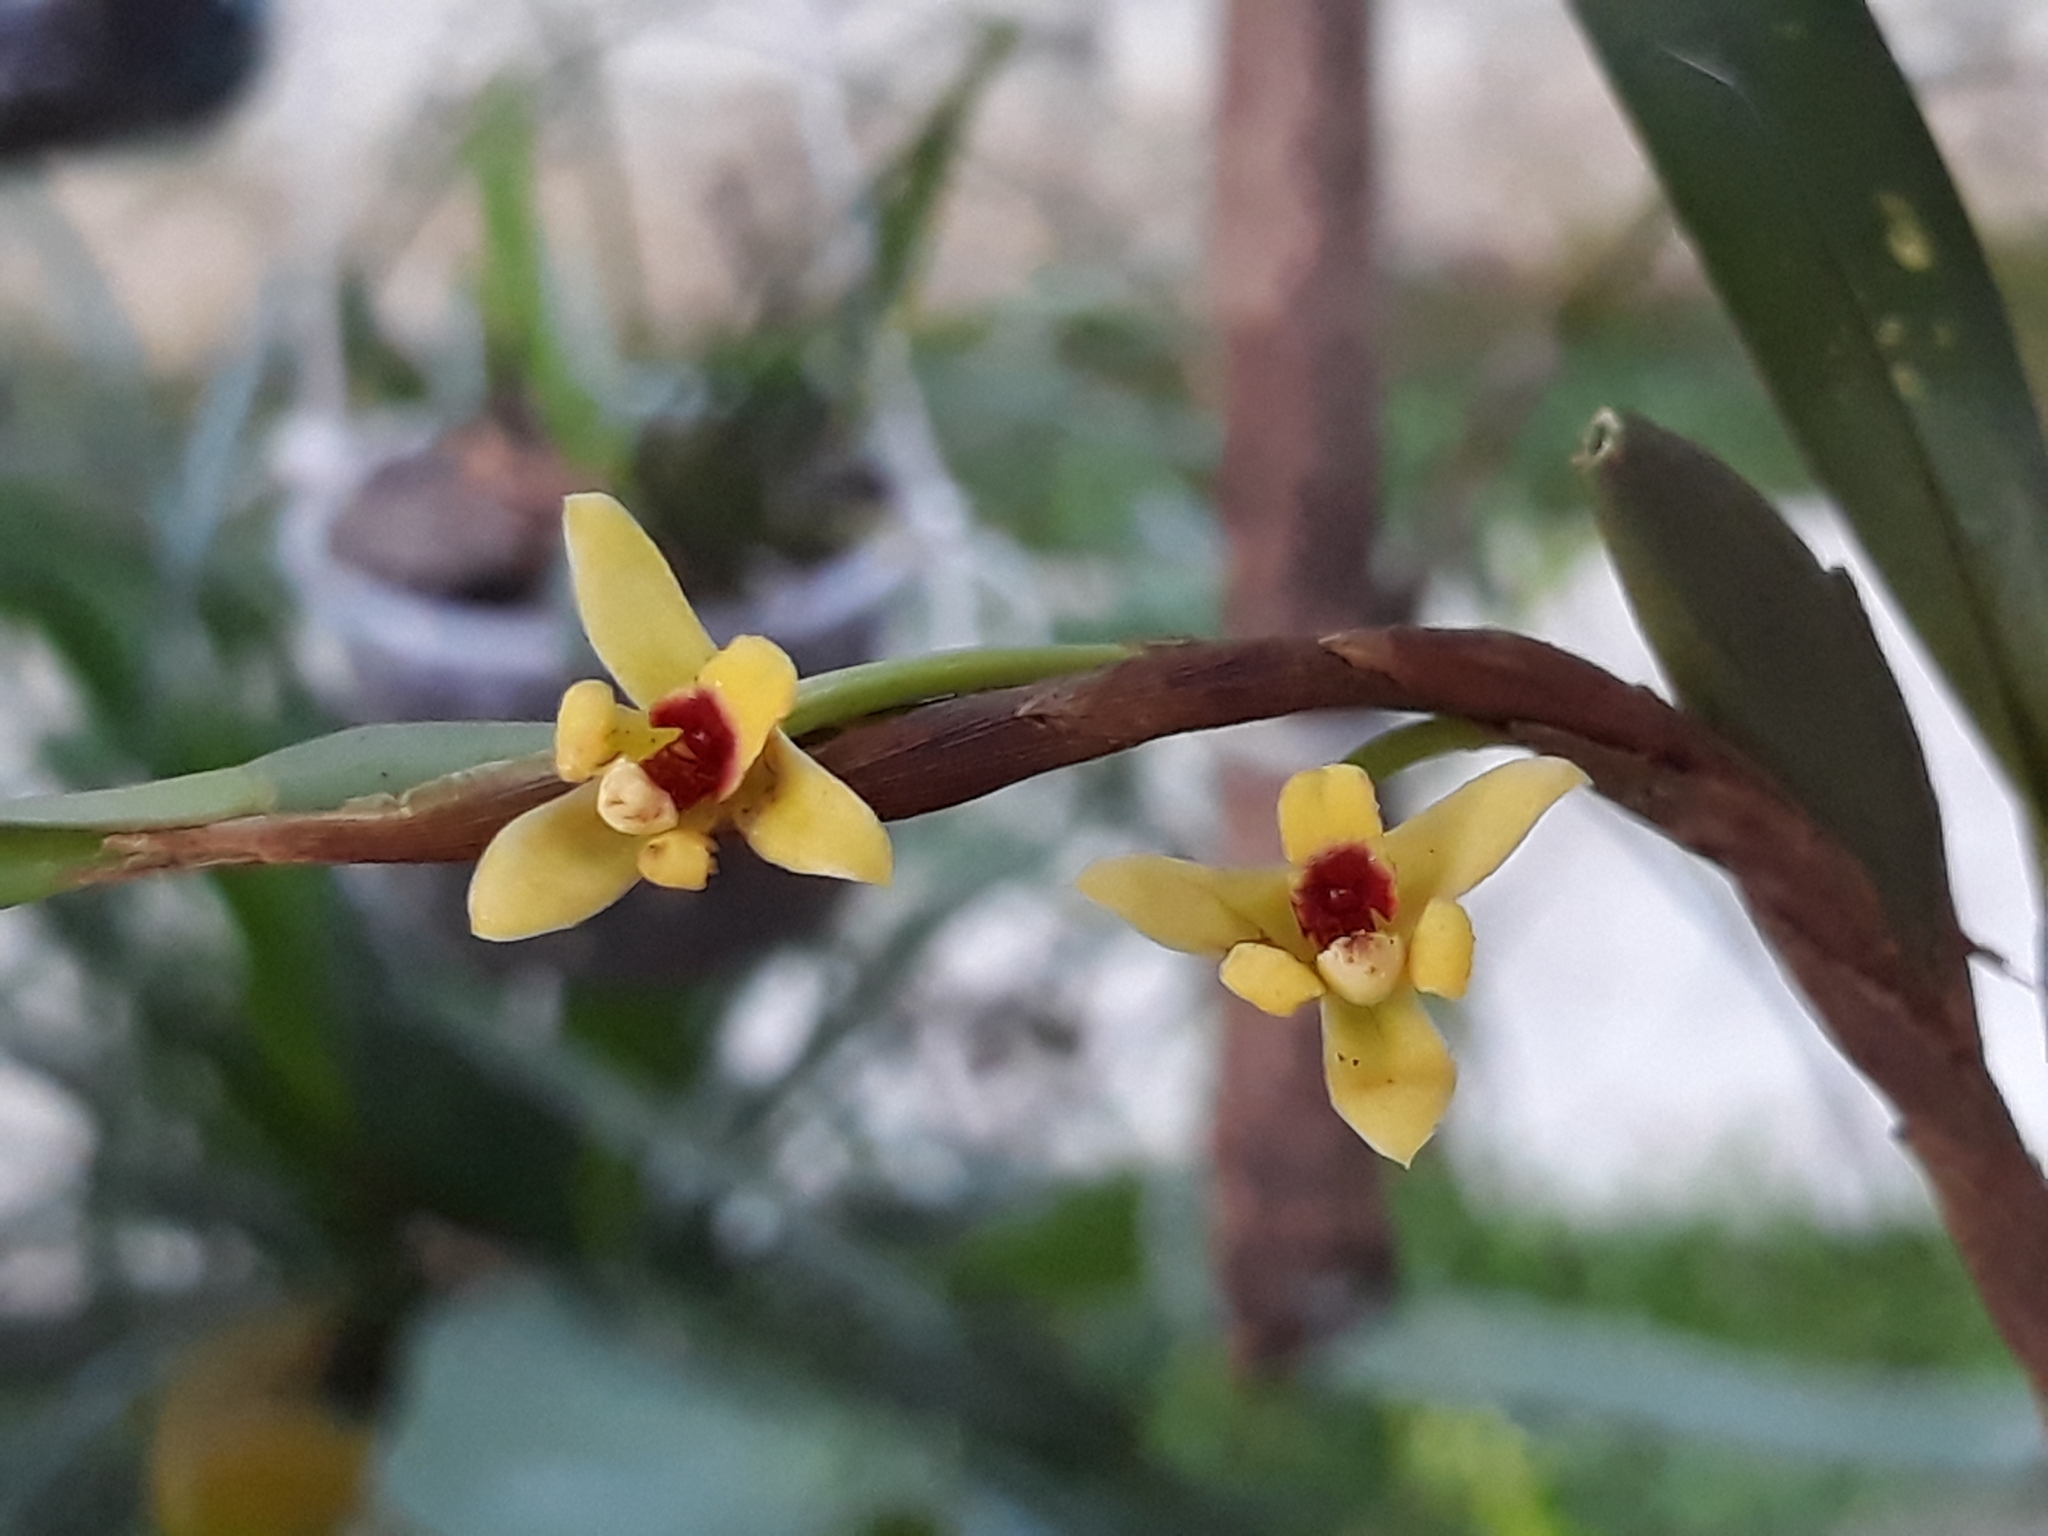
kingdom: Plantae
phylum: Tracheophyta
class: Liliopsida
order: Asparagales
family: Orchidaceae
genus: Maxillaria
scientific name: Maxillaria variabilis
